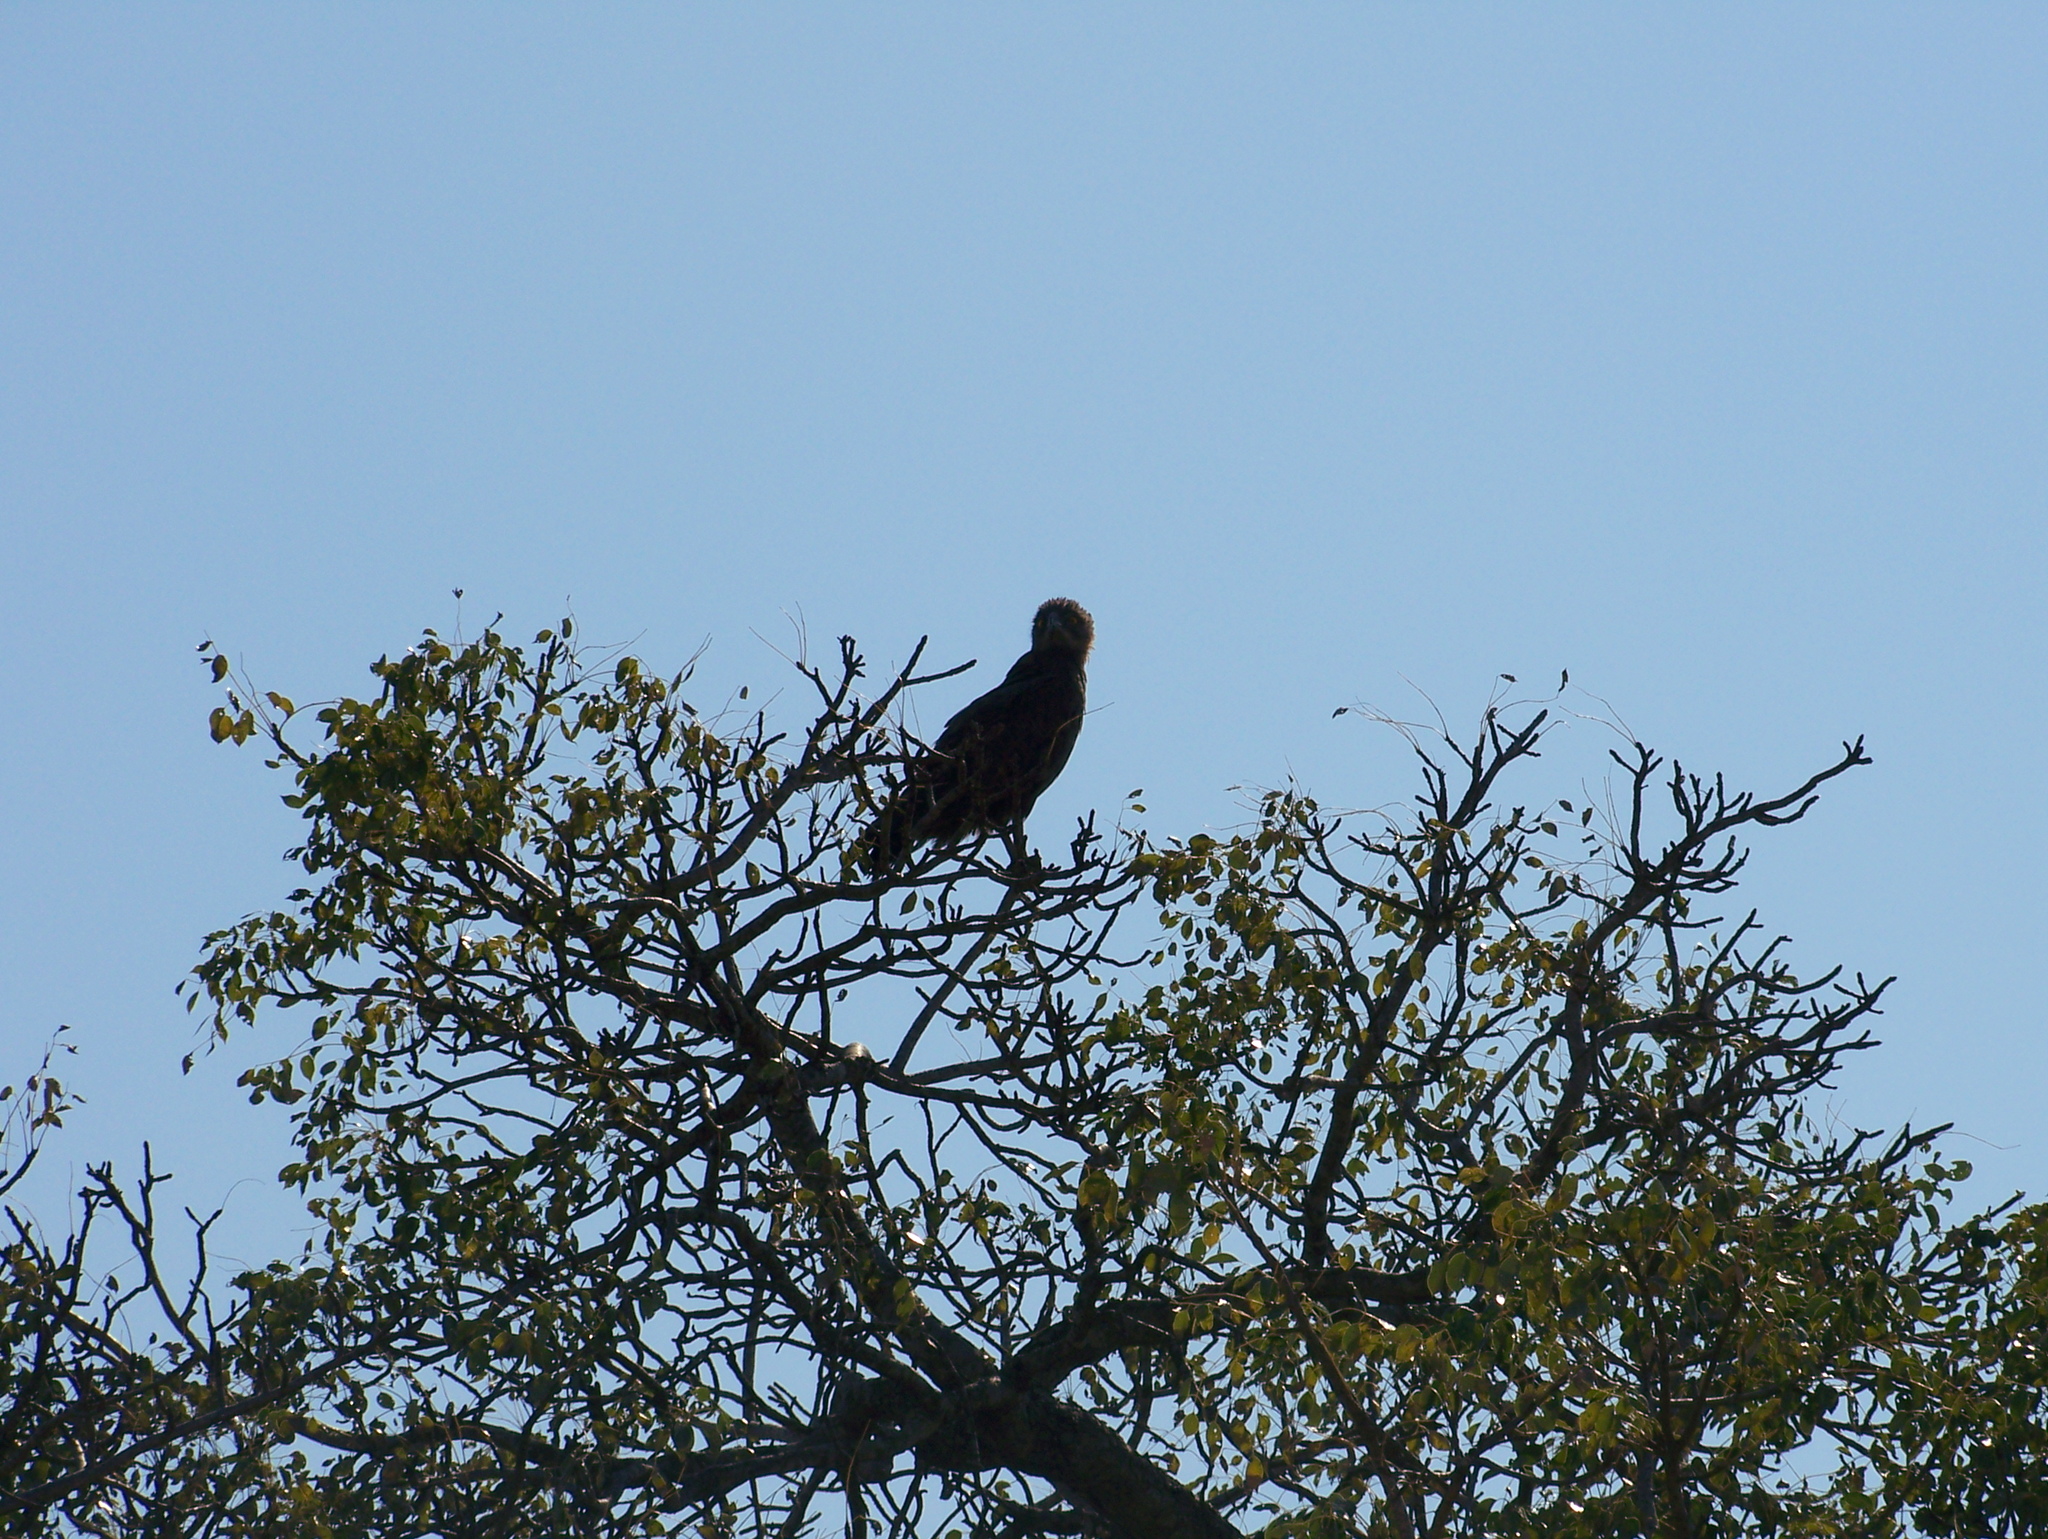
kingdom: Animalia
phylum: Chordata
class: Aves
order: Accipitriformes
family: Accipitridae
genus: Circaetus
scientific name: Circaetus cinereus
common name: Brown snake eagle
